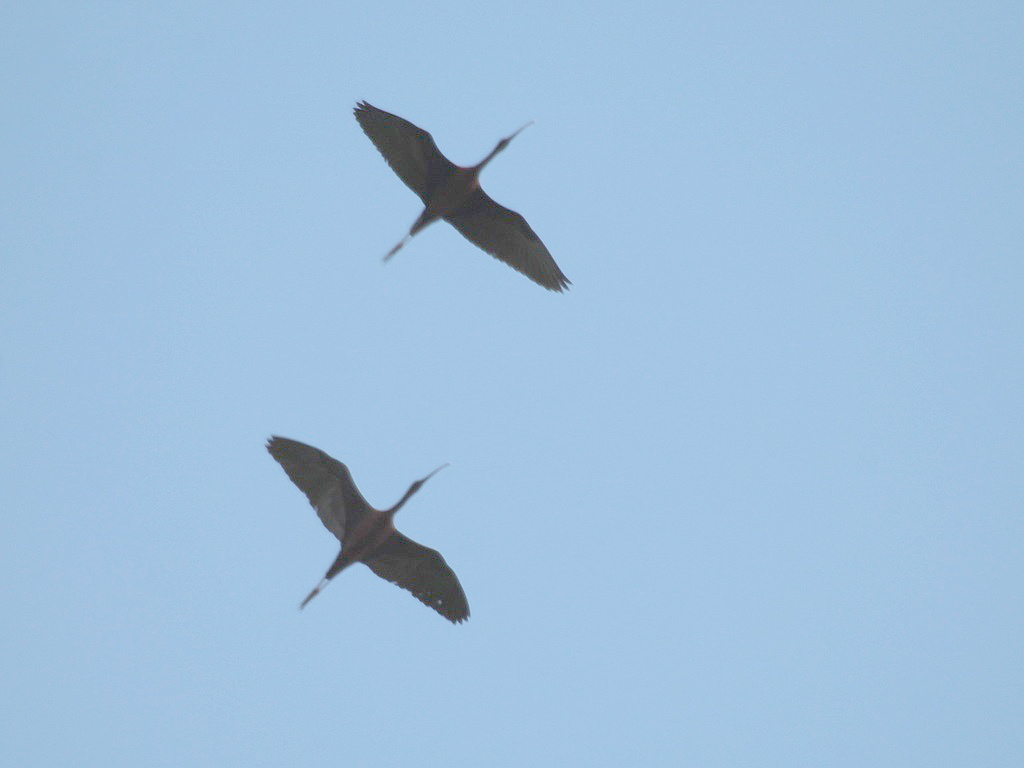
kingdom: Animalia
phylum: Chordata
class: Aves
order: Pelecaniformes
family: Threskiornithidae
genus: Plegadis
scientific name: Plegadis falcinellus
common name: Glossy ibis
